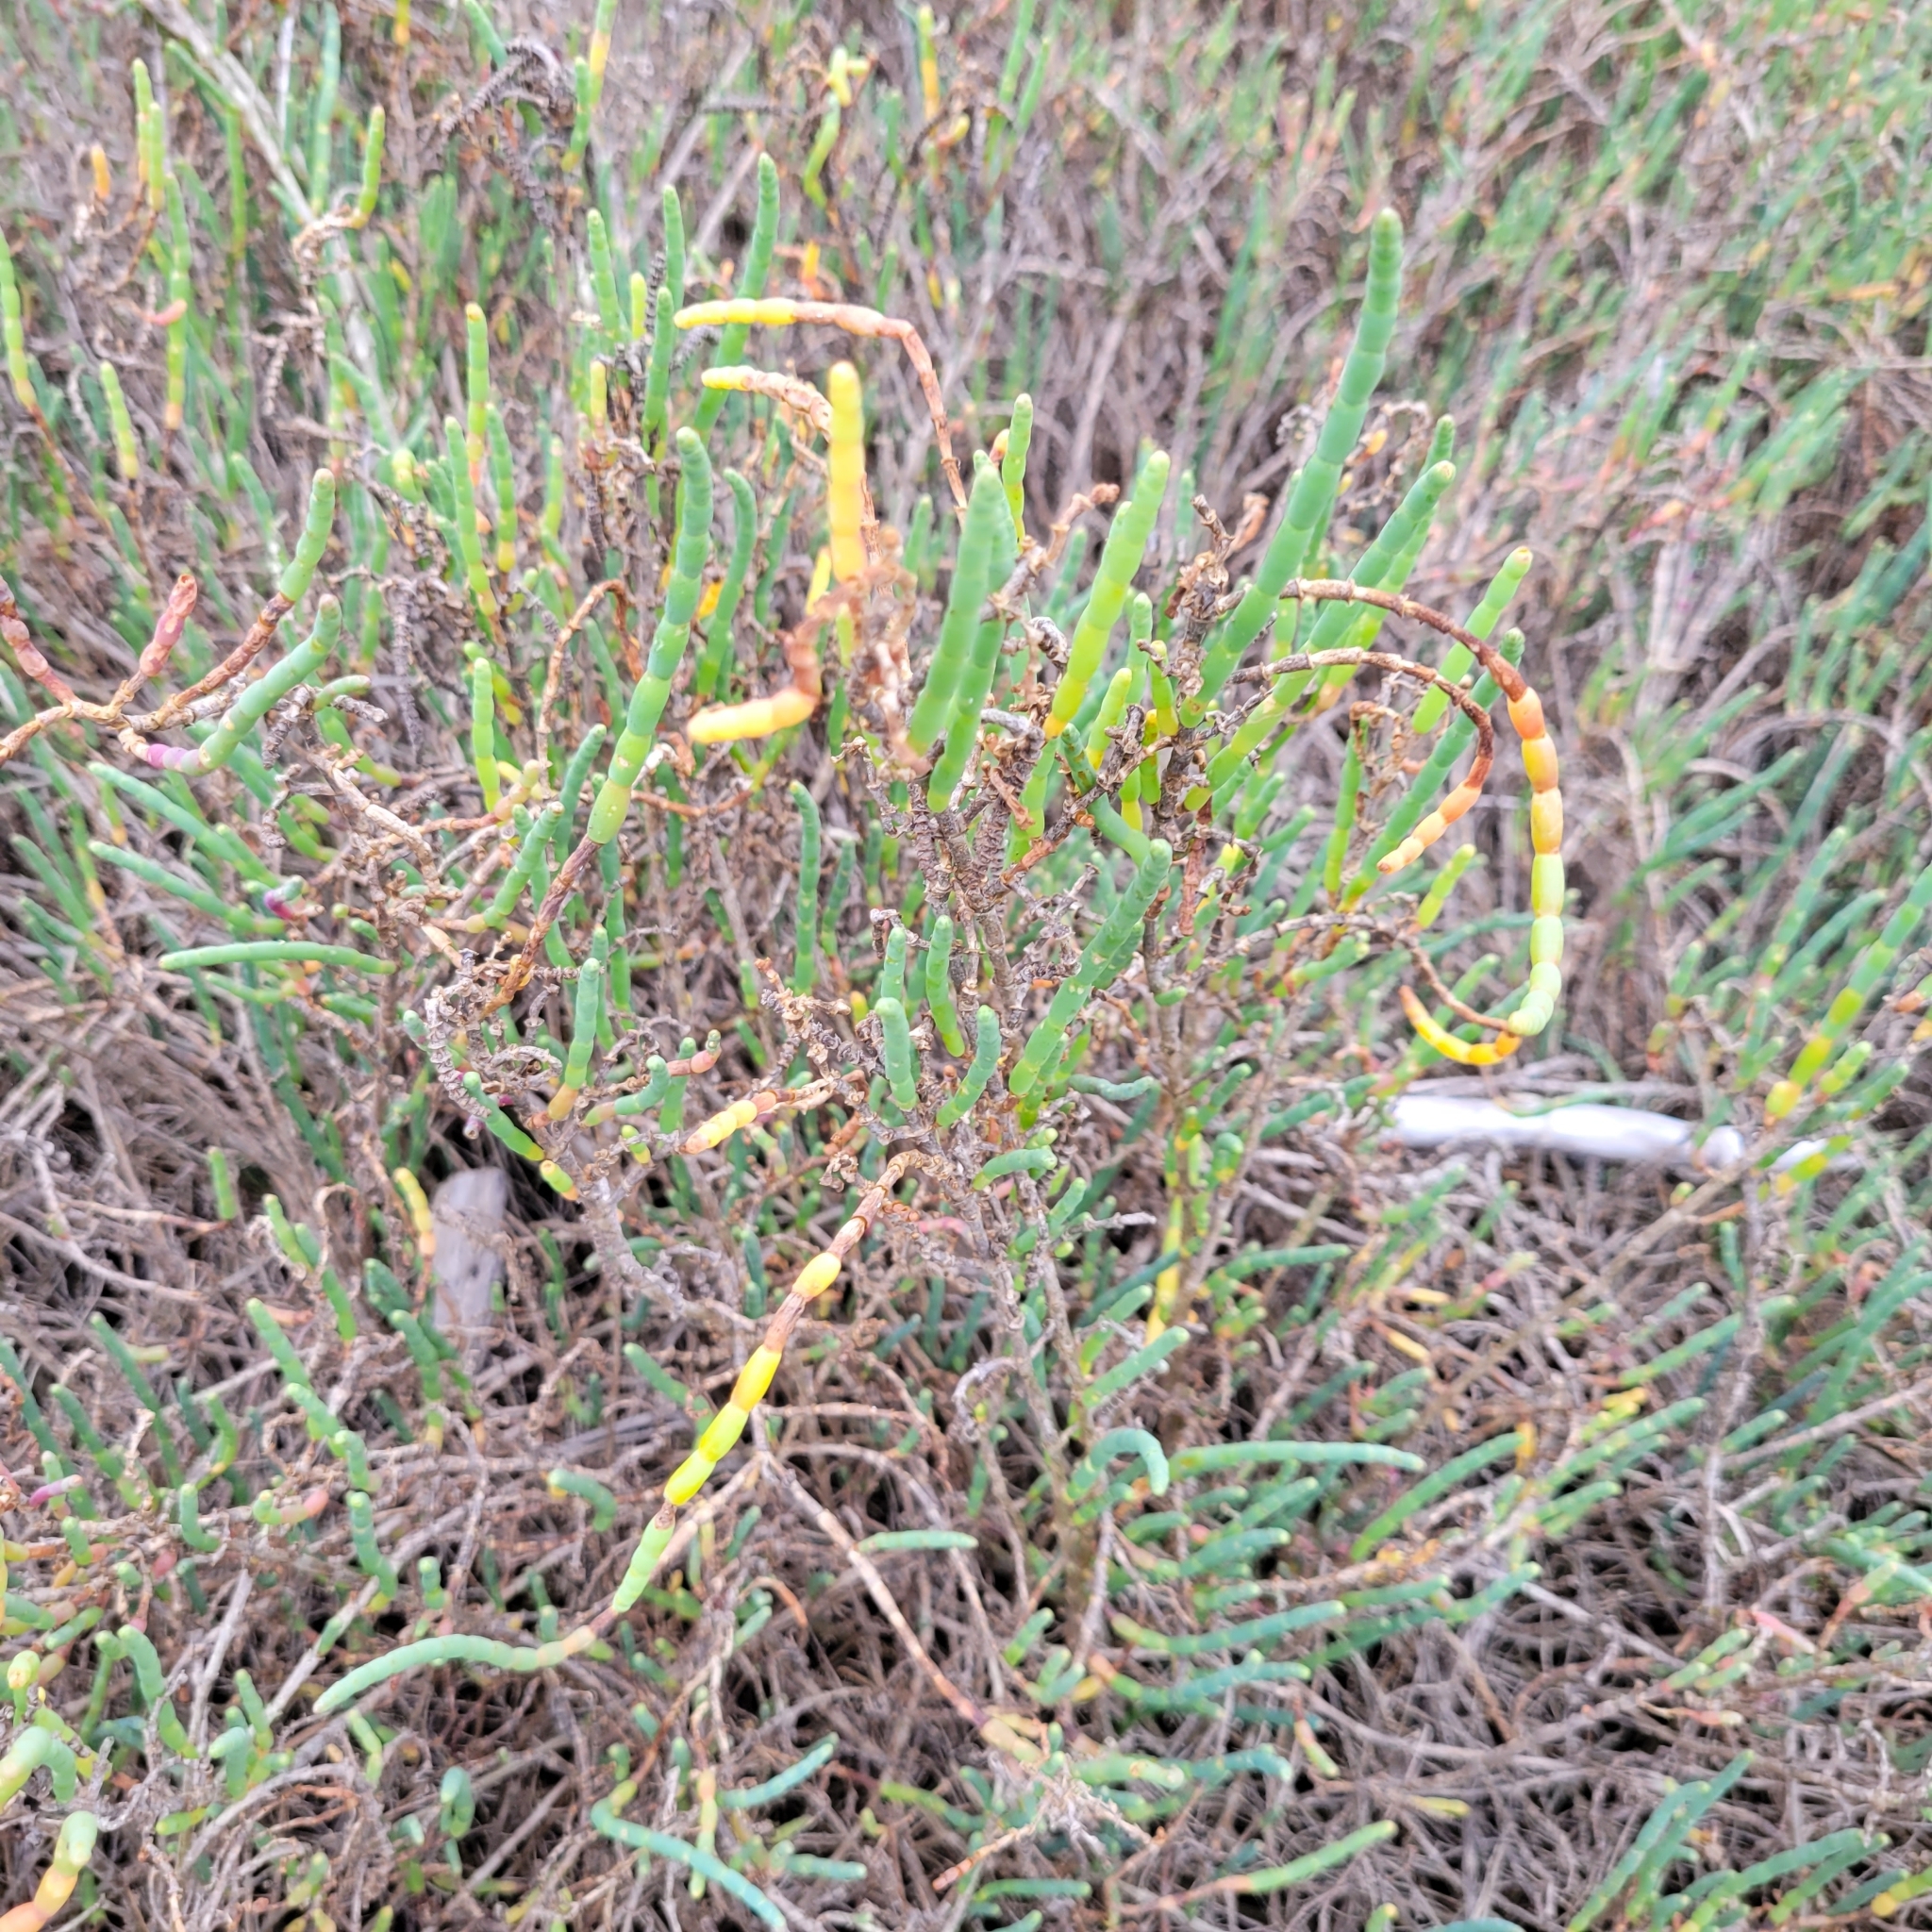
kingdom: Plantae
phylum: Tracheophyta
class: Magnoliopsida
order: Caryophyllales
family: Amaranthaceae
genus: Salicornia
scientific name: Salicornia pacifica
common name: Pacific glasswort
